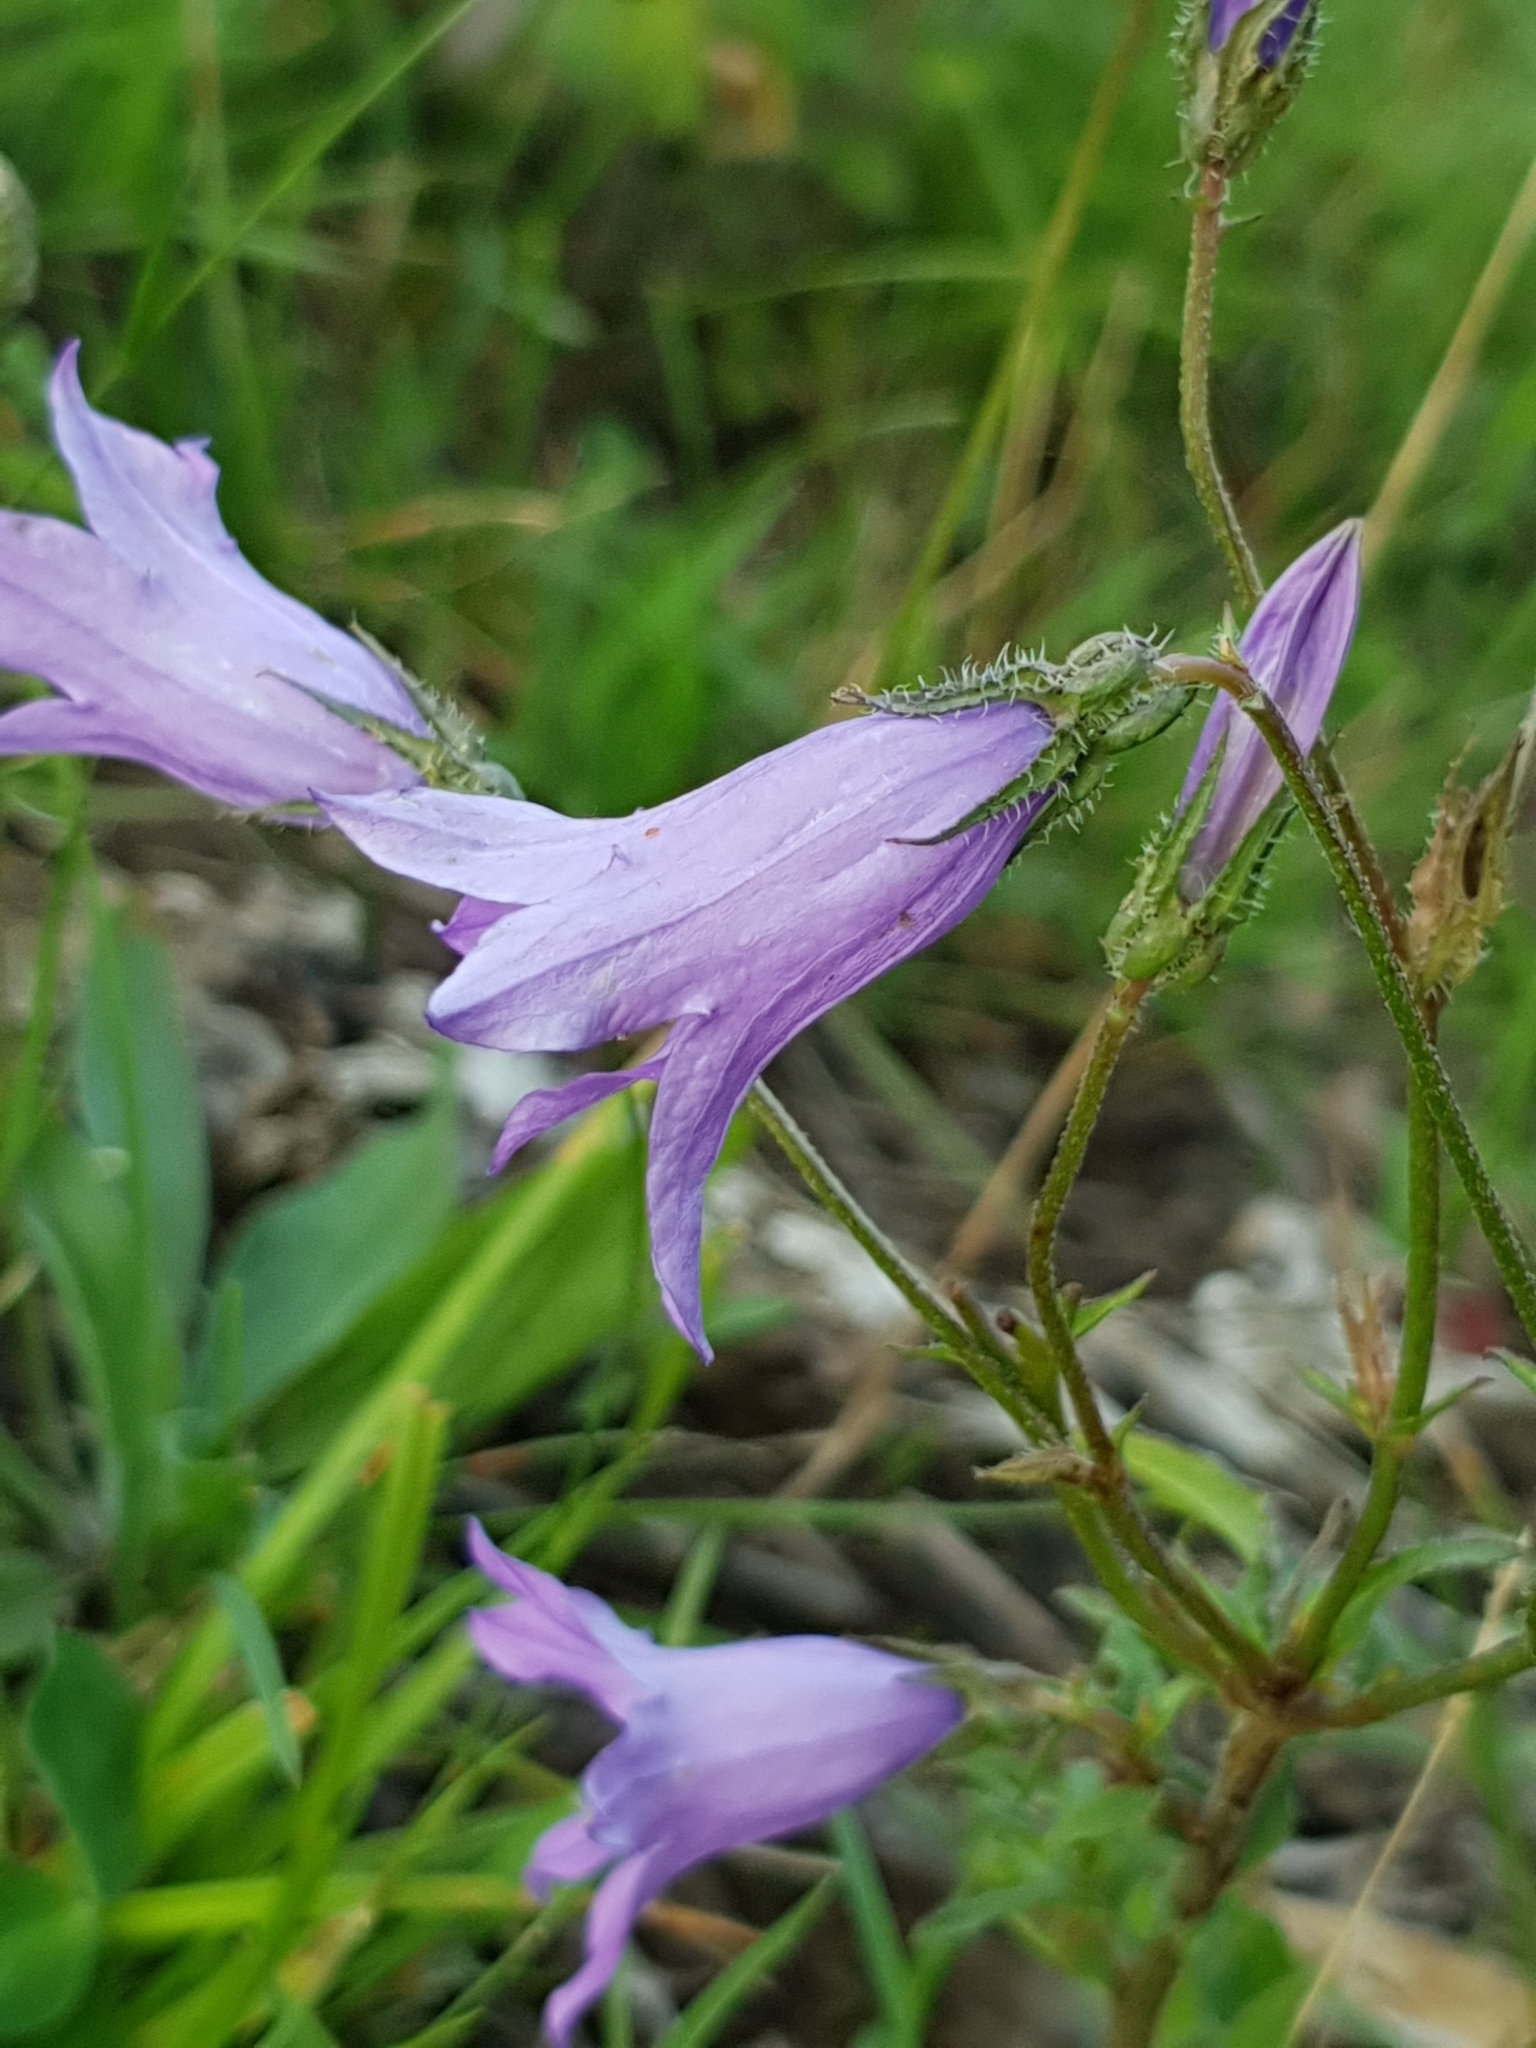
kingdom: Plantae
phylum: Tracheophyta
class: Magnoliopsida
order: Asterales
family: Campanulaceae
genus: Campanula
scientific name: Campanula sibirica
